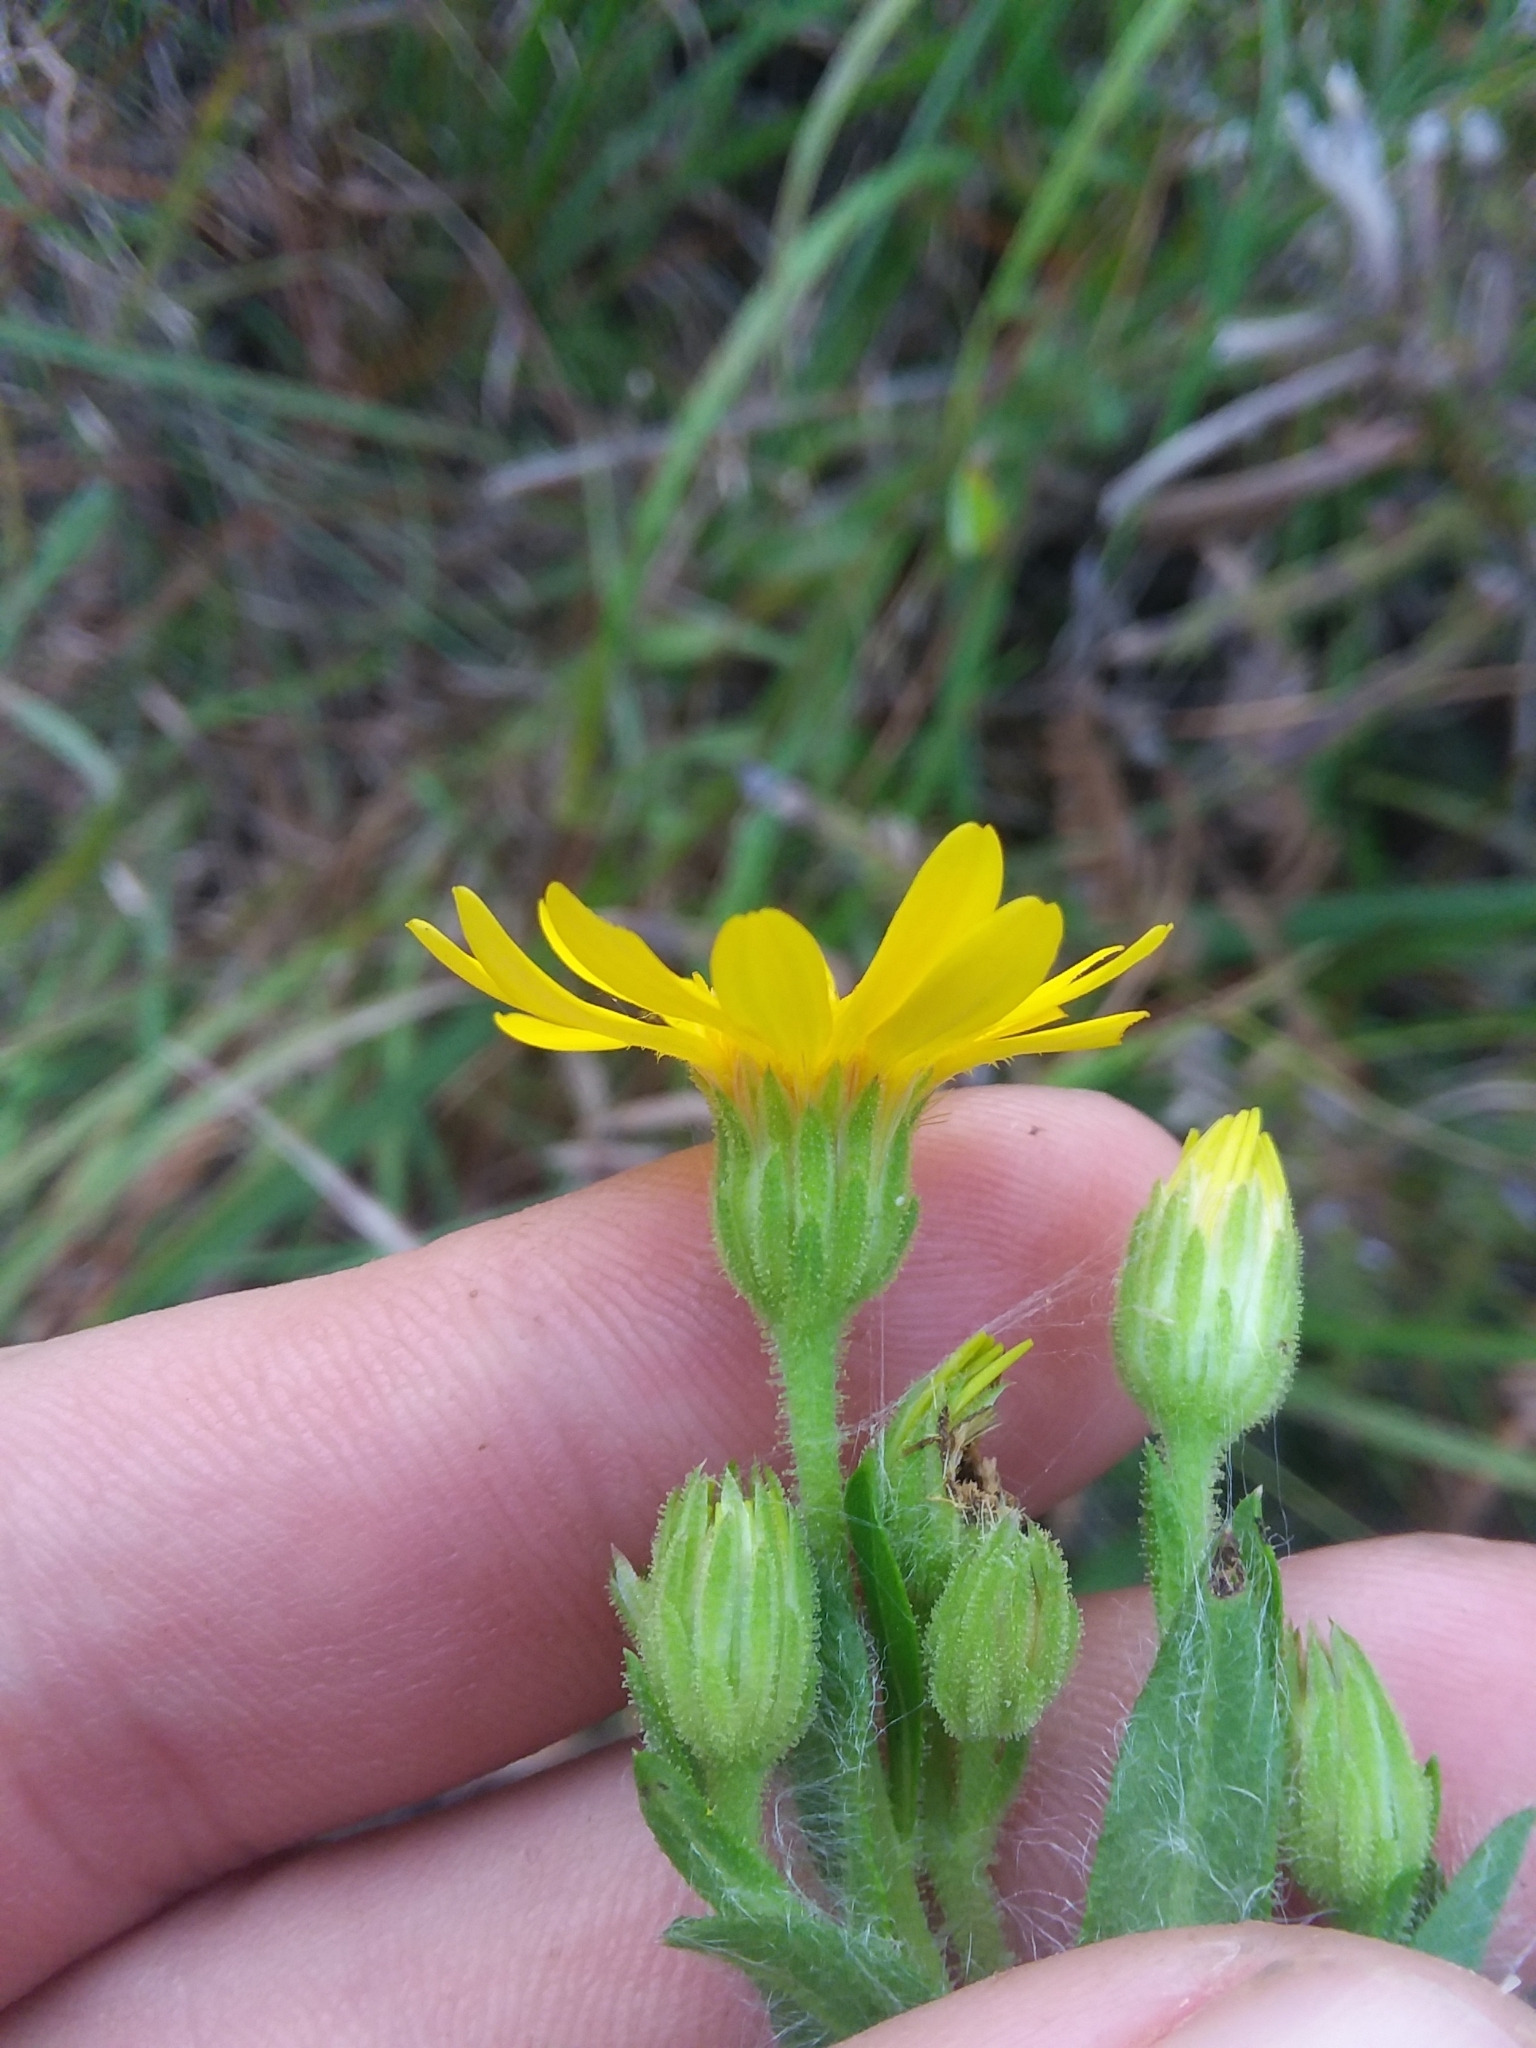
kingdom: Plantae
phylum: Tracheophyta
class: Magnoliopsida
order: Asterales
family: Asteraceae
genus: Chrysopsis
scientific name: Chrysopsis mariana
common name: Maryland golden-aster
